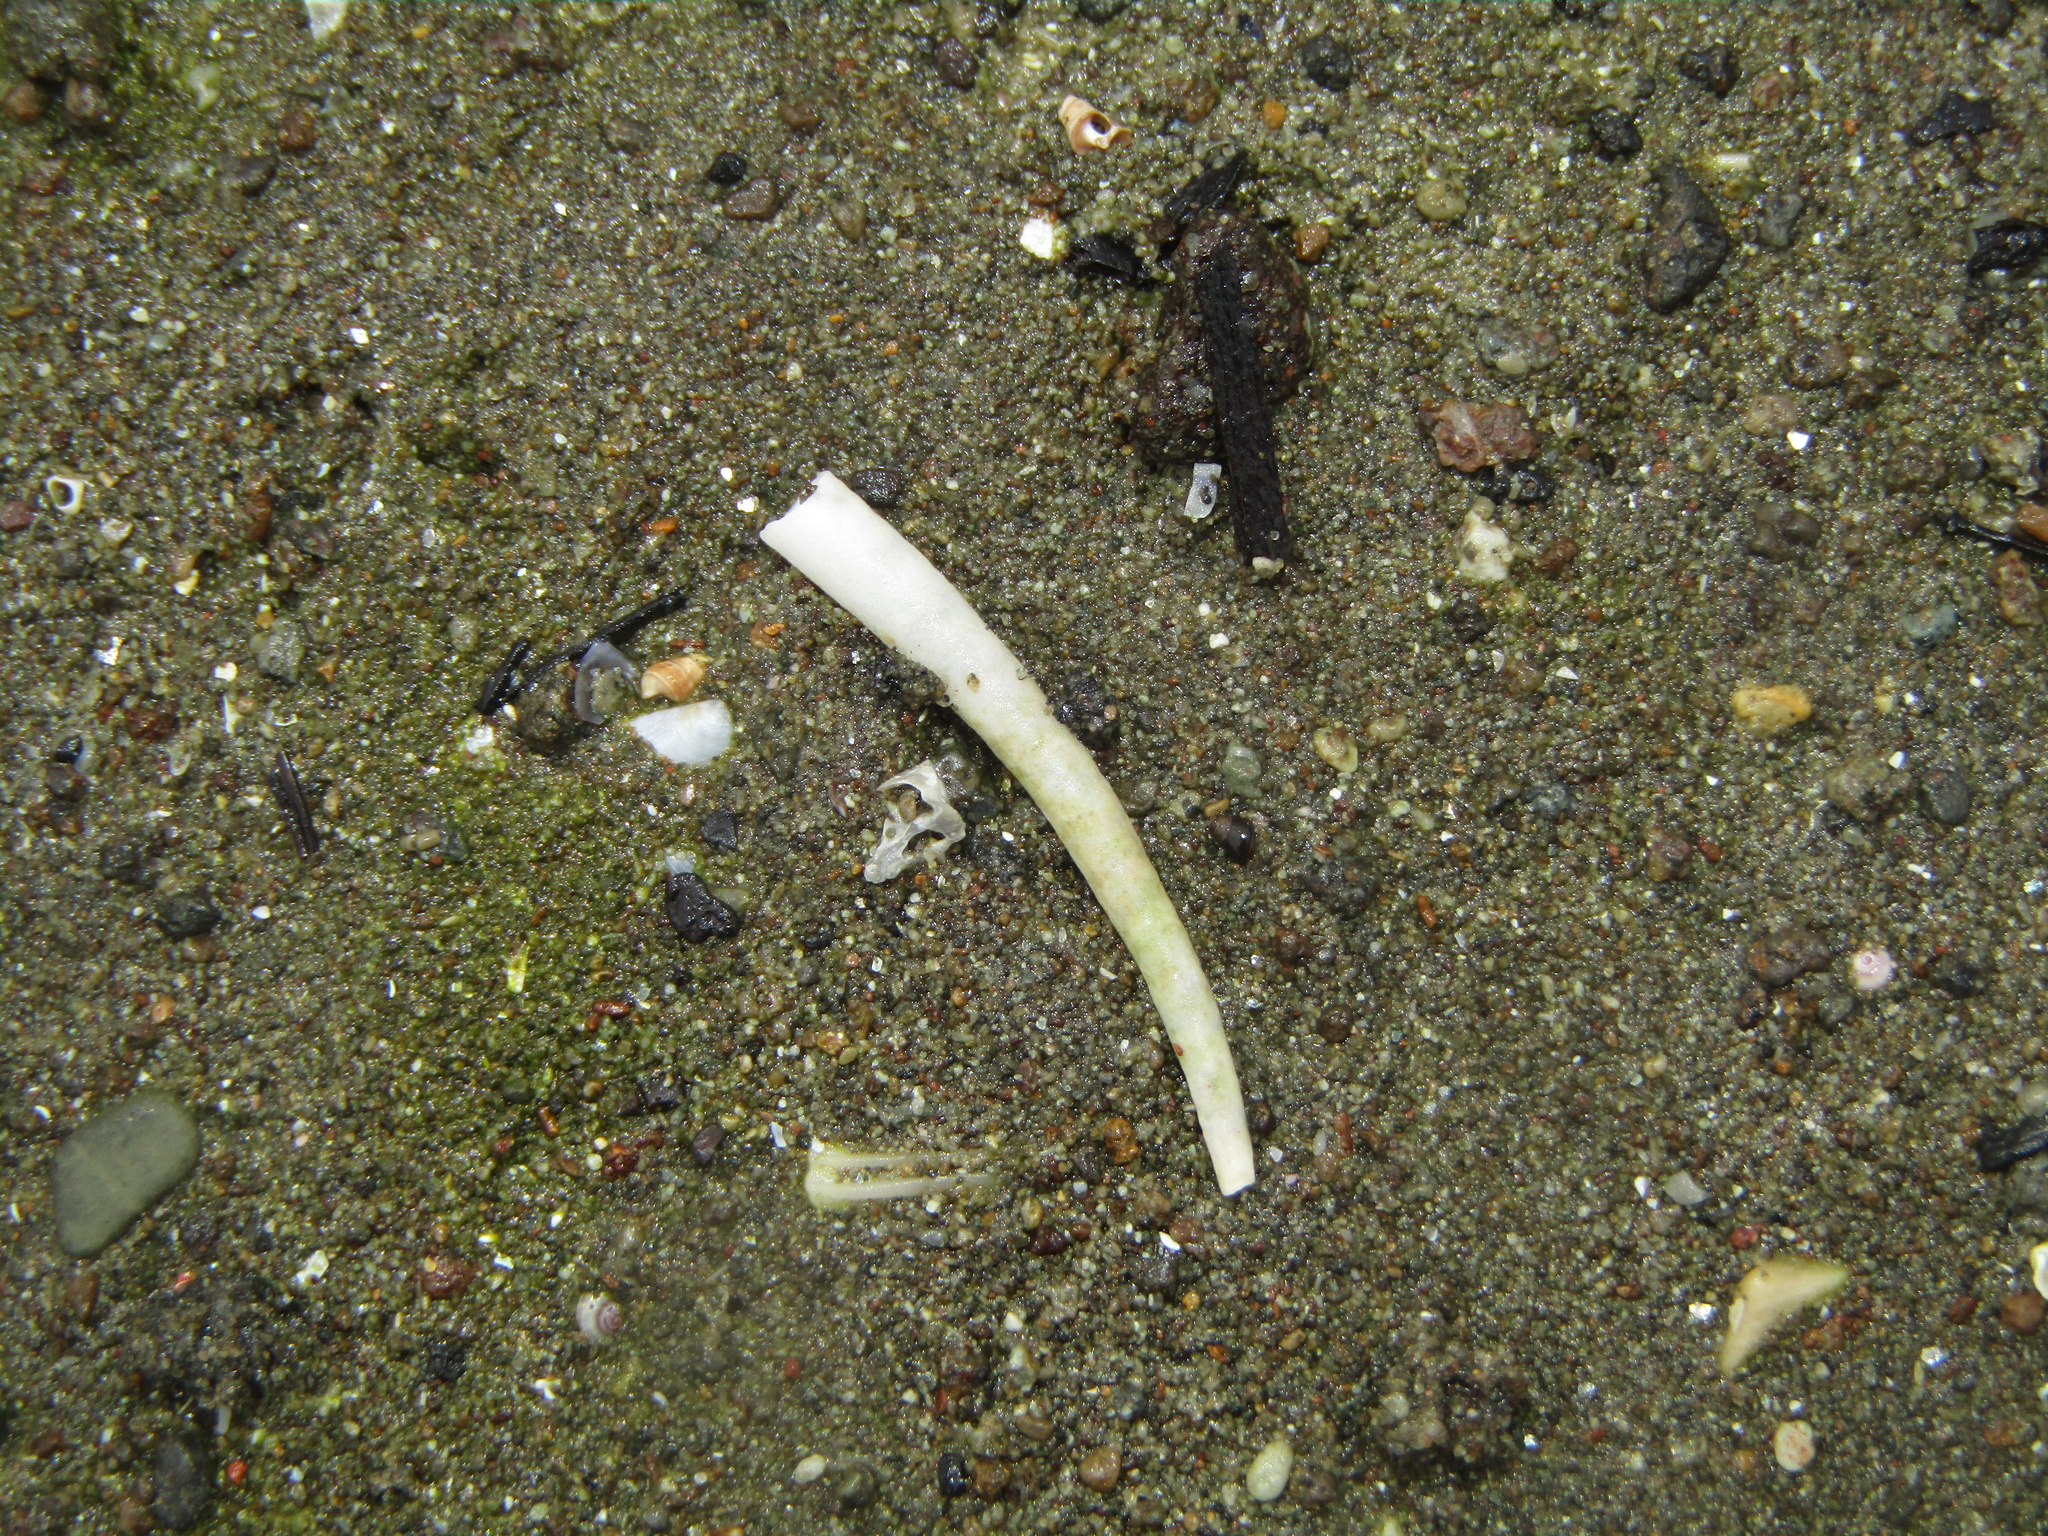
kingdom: Animalia
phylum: Mollusca
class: Scaphopoda
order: Dentaliida
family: Dentaliidae
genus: Antalis
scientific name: Antalis nana
